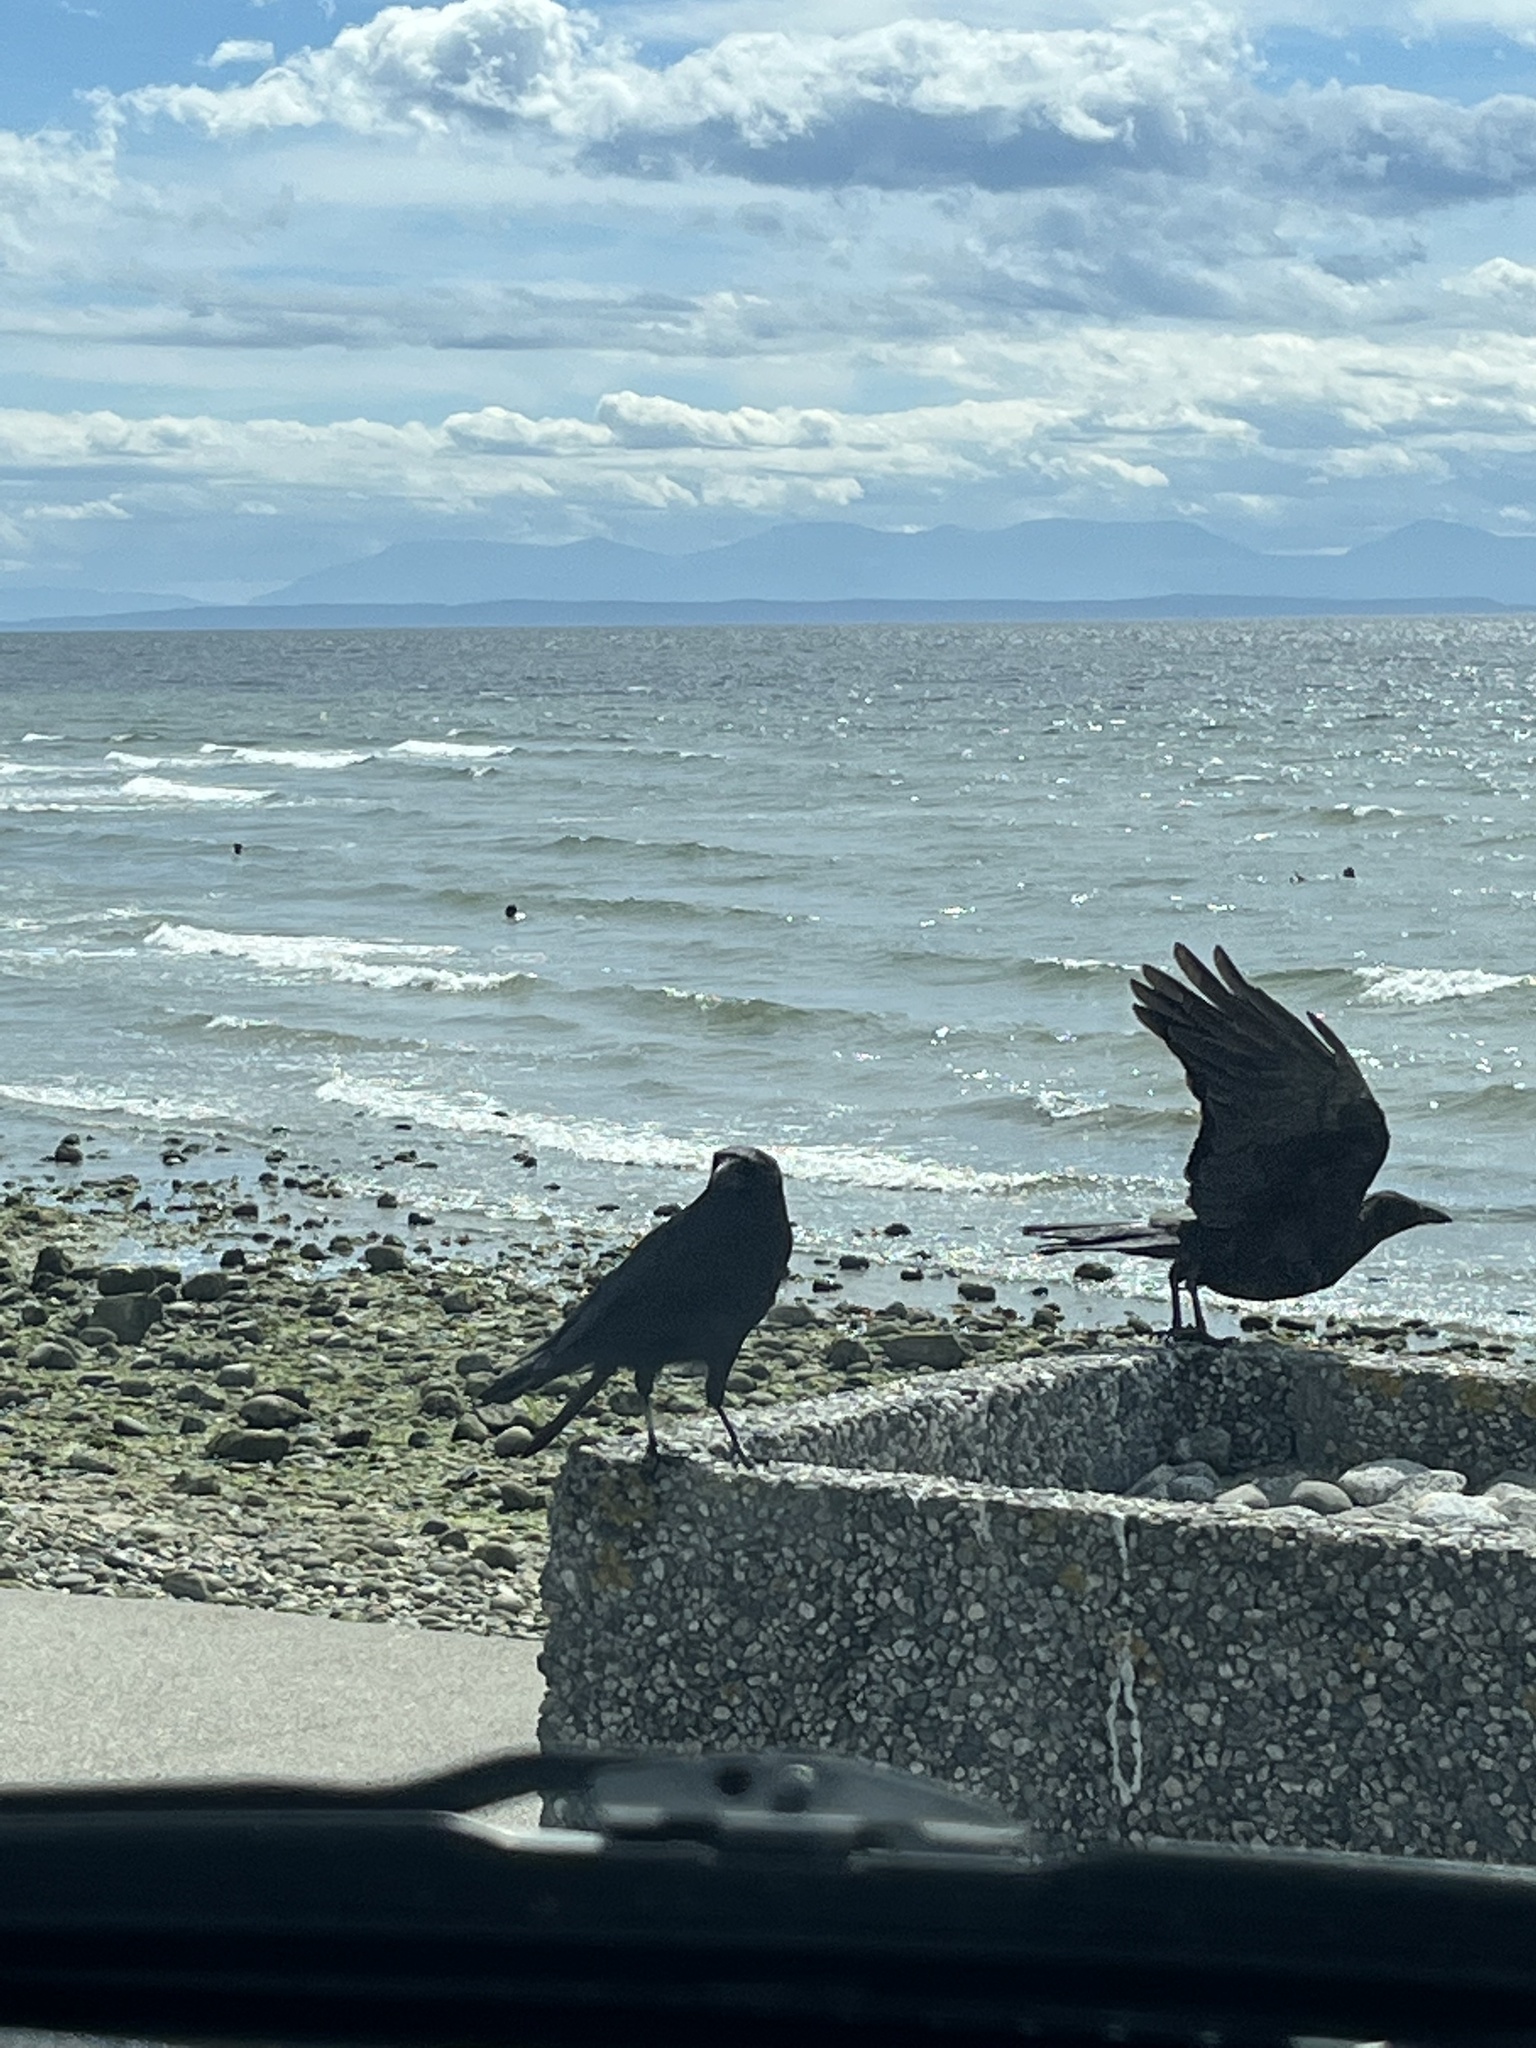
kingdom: Animalia
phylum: Chordata
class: Aves
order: Passeriformes
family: Corvidae
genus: Corvus
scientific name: Corvus brachyrhynchos
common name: American crow
